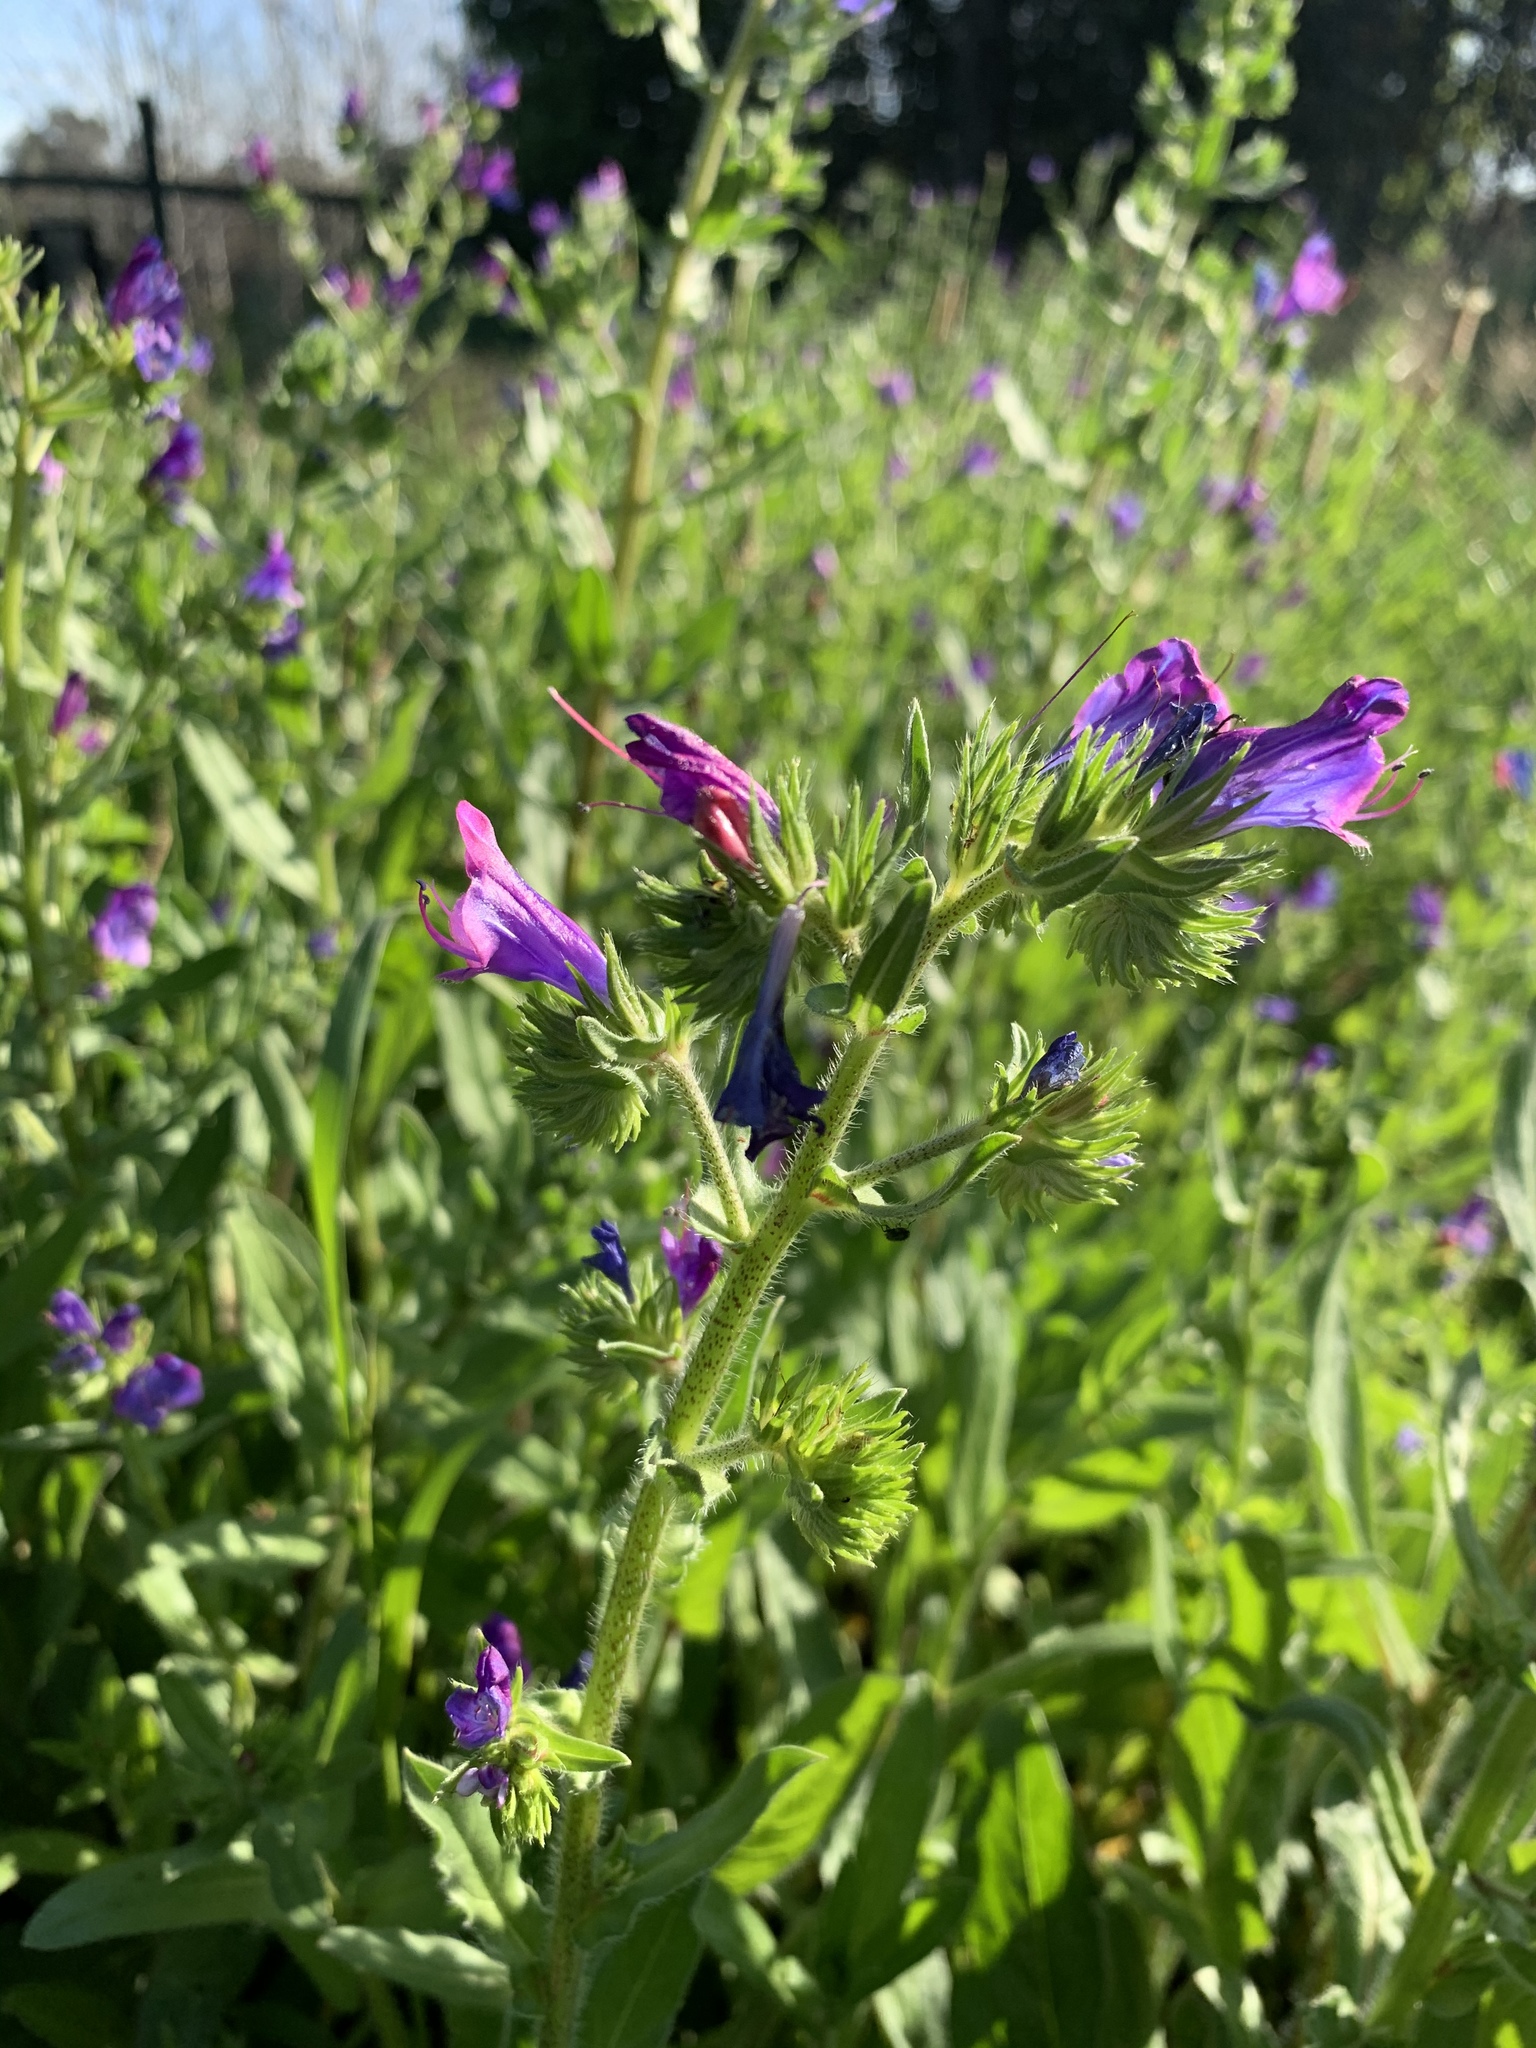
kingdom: Plantae
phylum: Tracheophyta
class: Magnoliopsida
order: Boraginales
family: Boraginaceae
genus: Echium
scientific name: Echium plantagineum
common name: Purple viper's-bugloss
